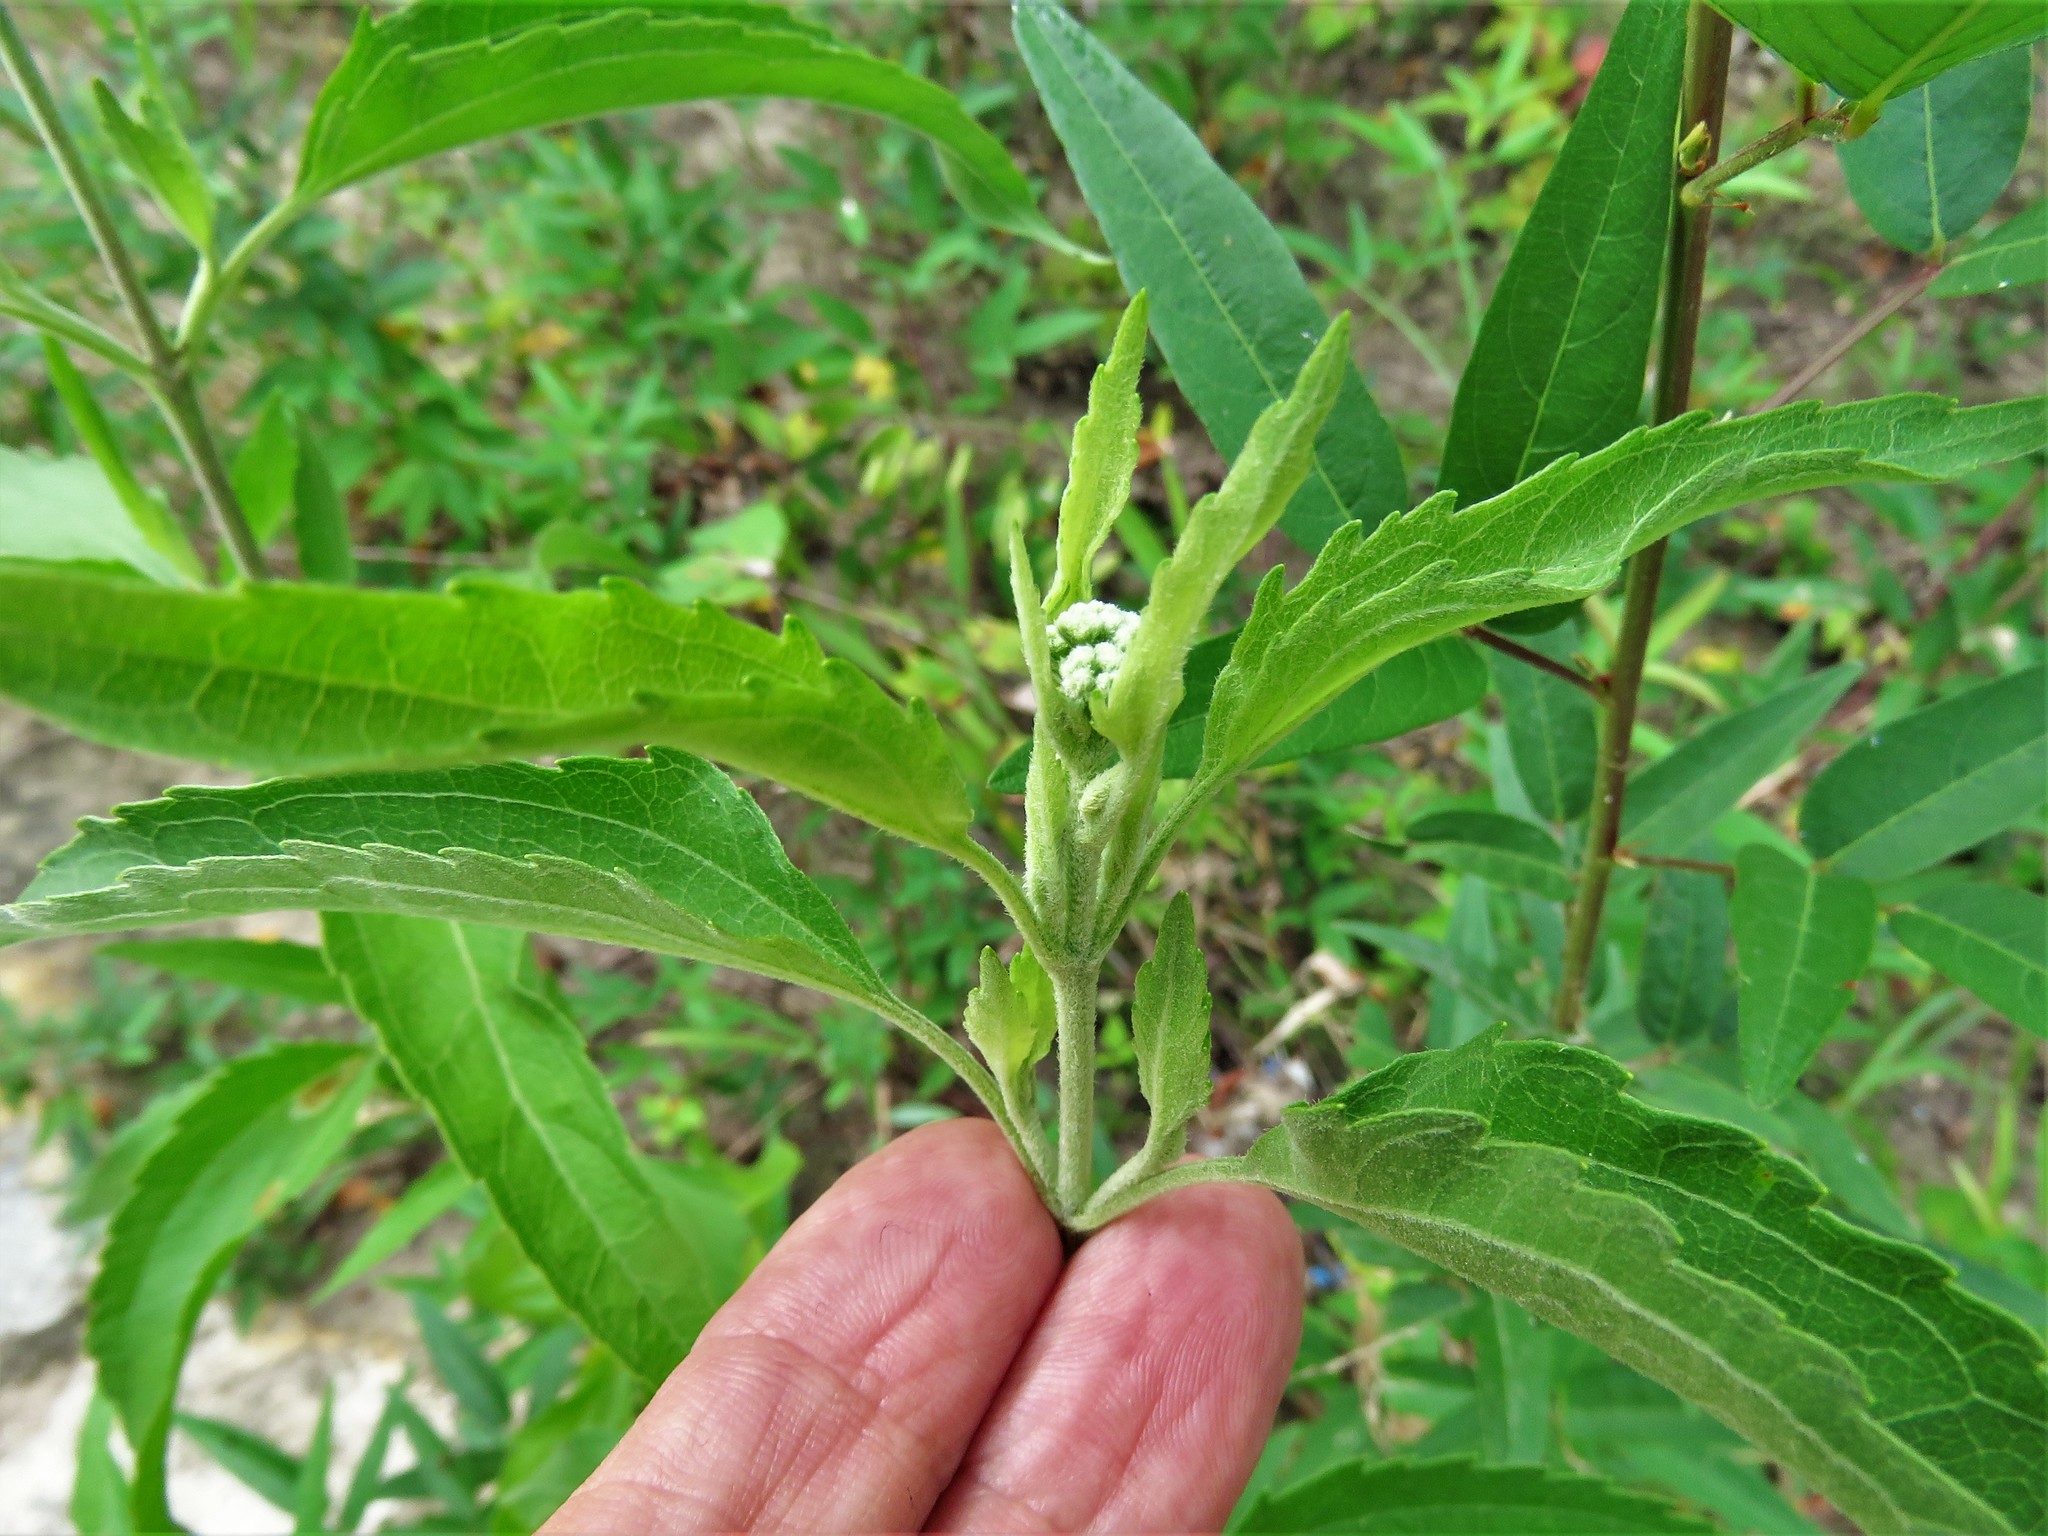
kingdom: Plantae
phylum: Tracheophyta
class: Magnoliopsida
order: Asterales
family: Asteraceae
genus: Eupatorium
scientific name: Eupatorium serotinum
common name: Late boneset
